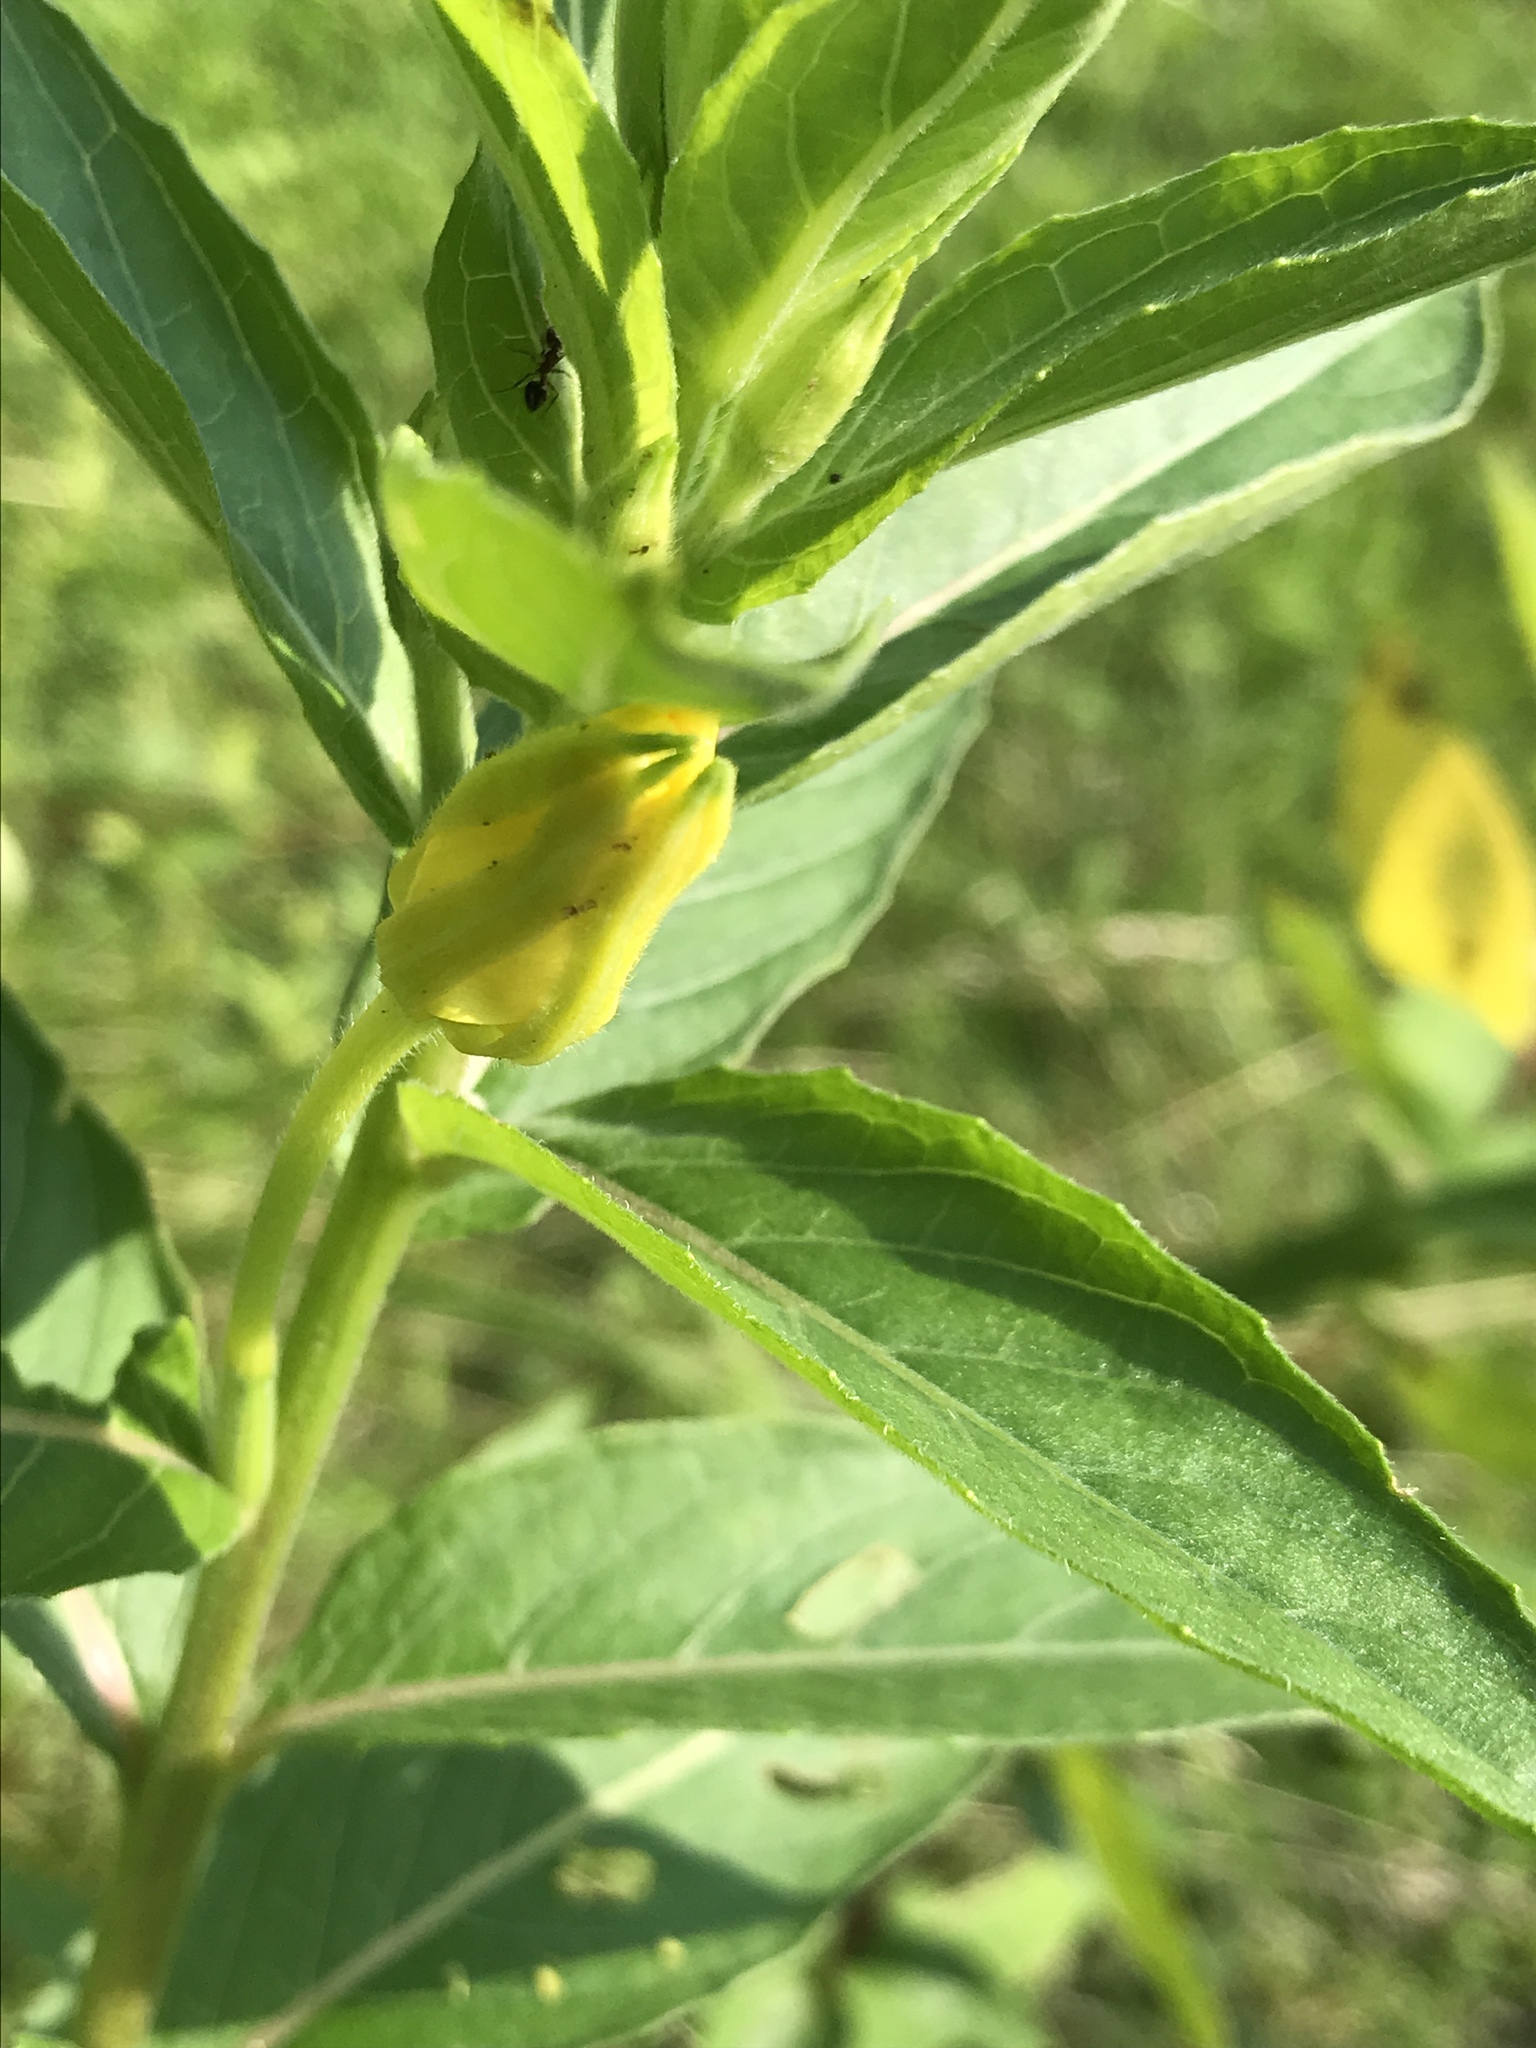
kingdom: Plantae
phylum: Tracheophyta
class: Magnoliopsida
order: Myrtales
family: Onagraceae
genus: Oenothera
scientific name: Oenothera biennis
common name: Common evening-primrose
